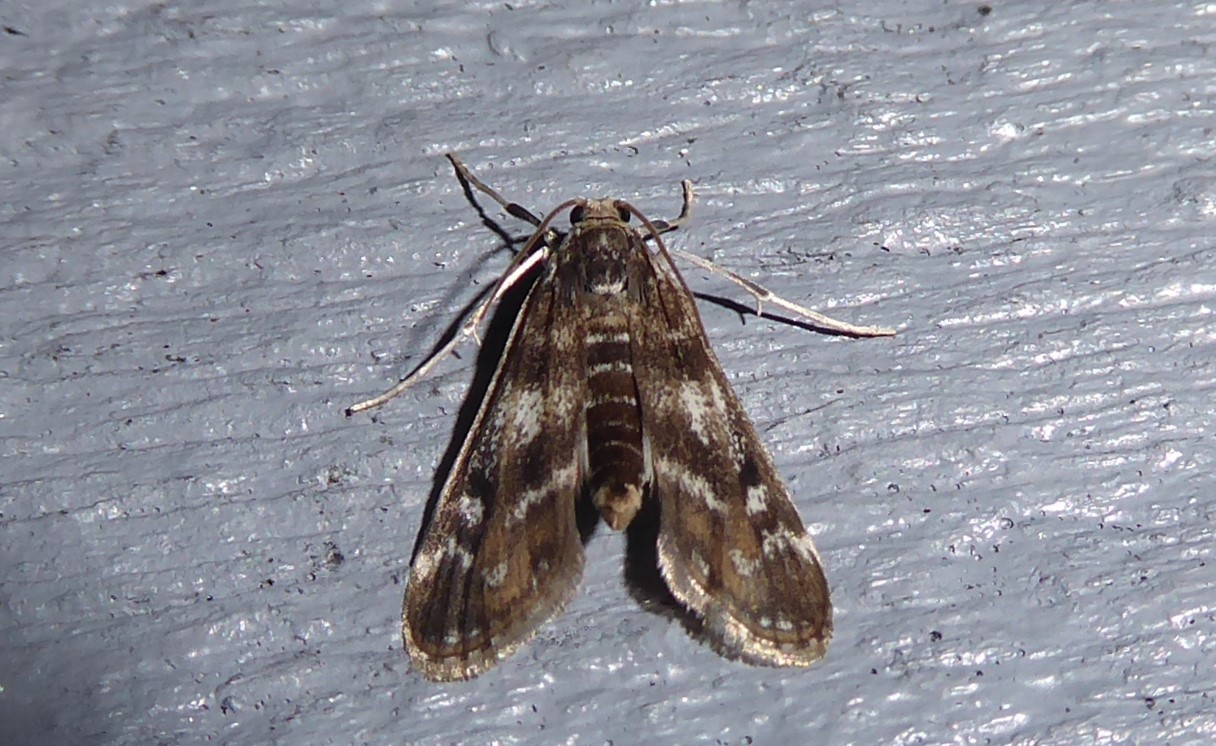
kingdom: Animalia
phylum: Arthropoda
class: Insecta
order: Lepidoptera
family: Crambidae
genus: Hygraula
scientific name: Hygraula nitens
